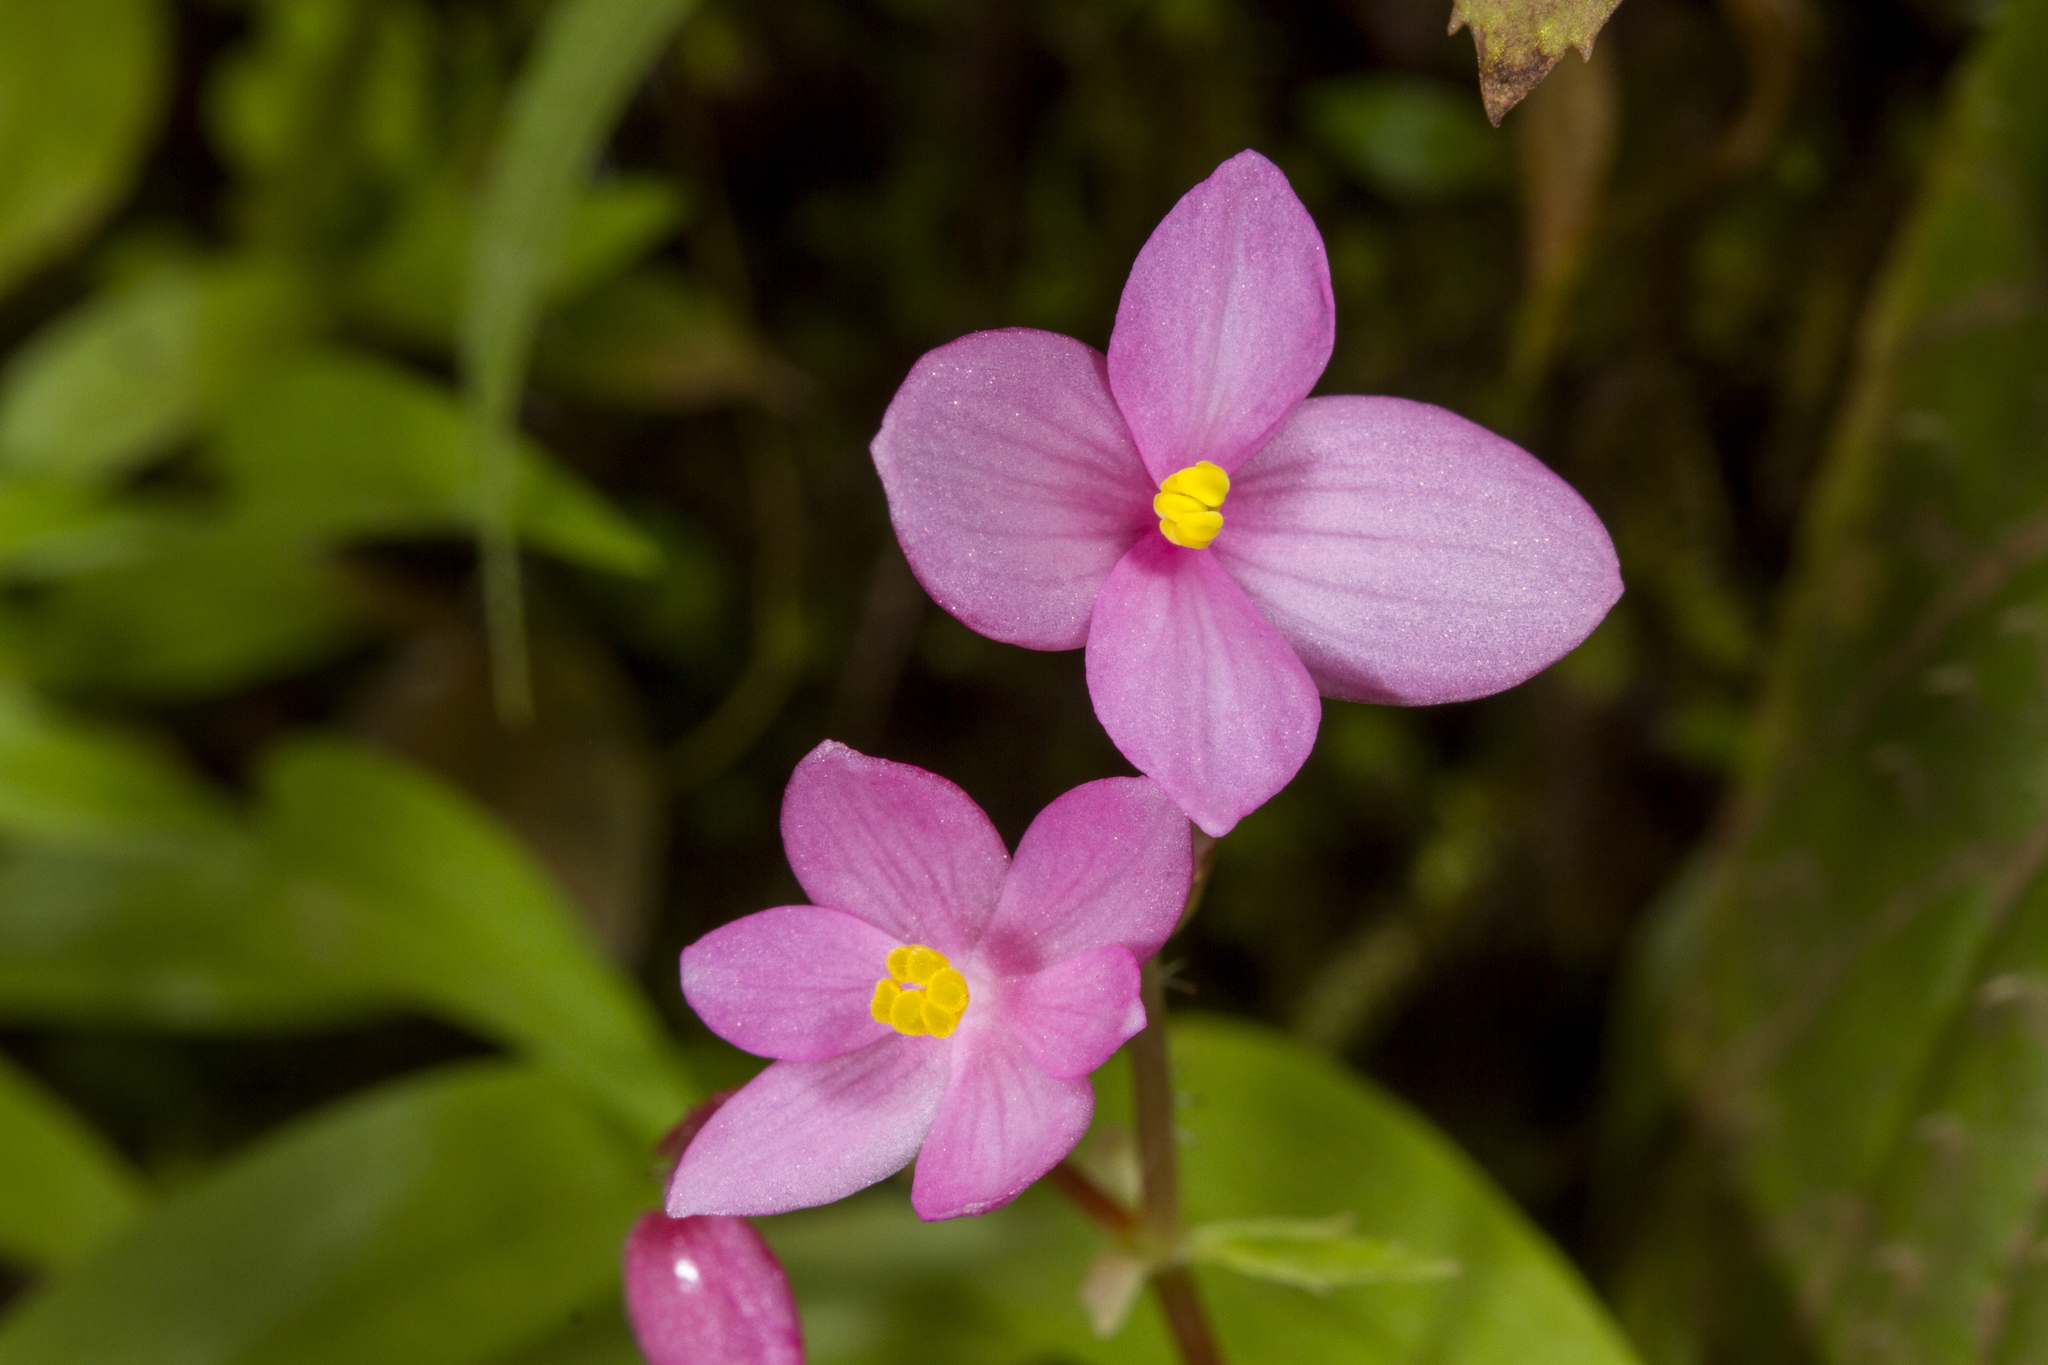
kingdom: Plantae
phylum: Tracheophyta
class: Magnoliopsida
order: Cucurbitales
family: Begoniaceae
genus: Begonia
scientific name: Begonia crenata
